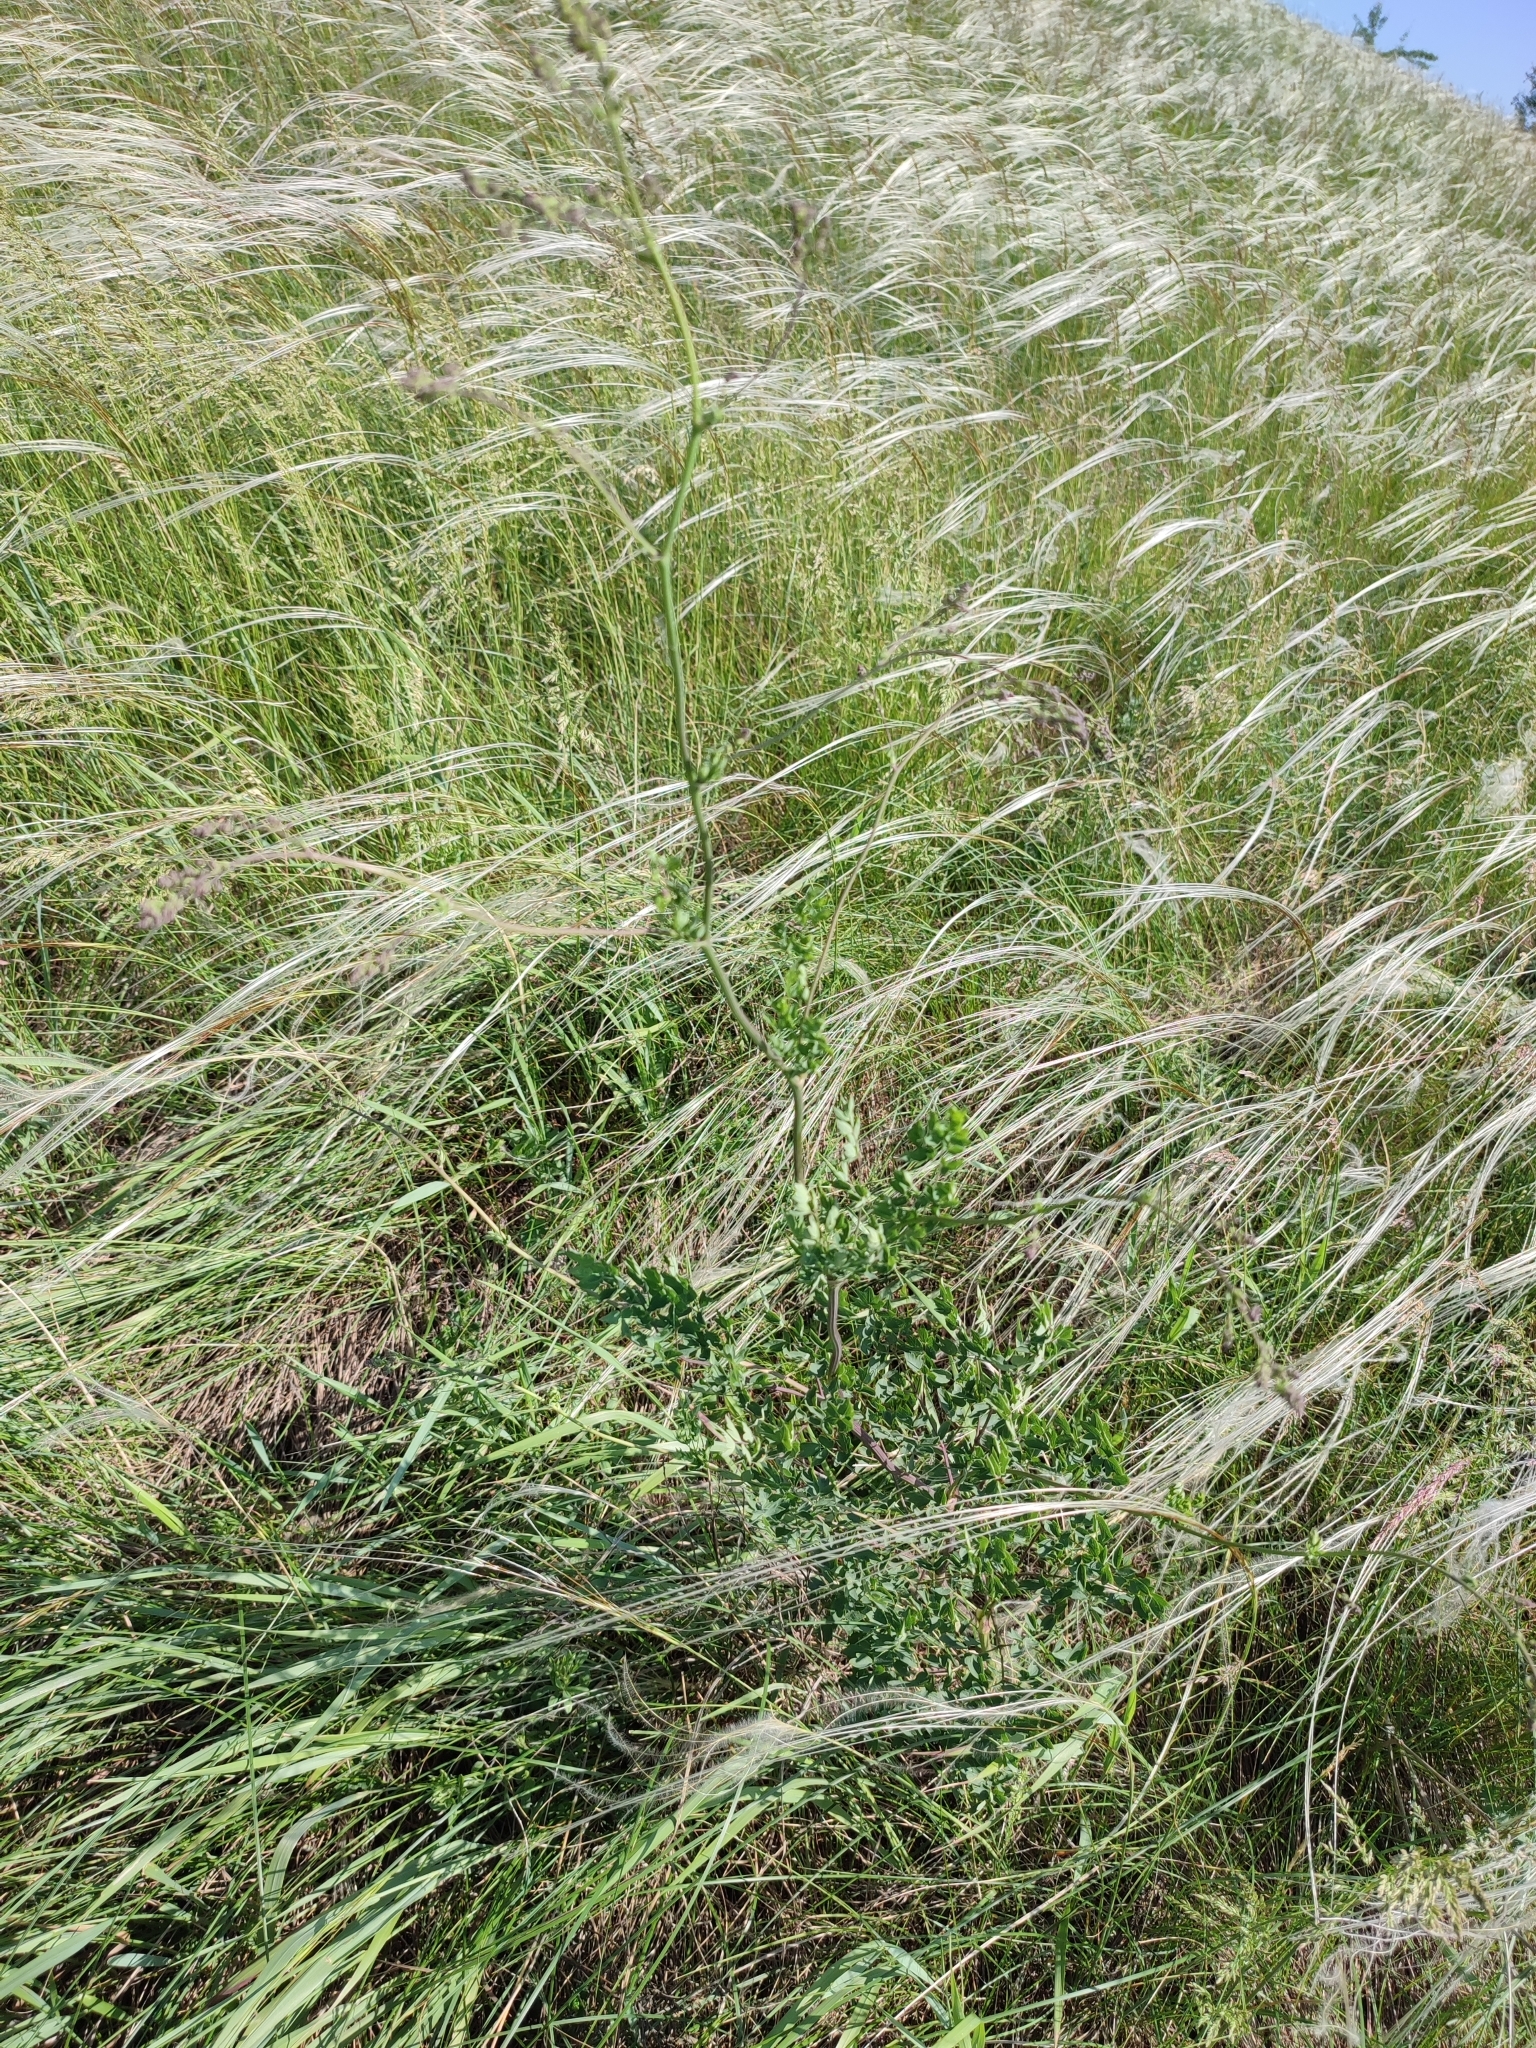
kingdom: Plantae
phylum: Tracheophyta
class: Magnoliopsida
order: Ranunculales
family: Ranunculaceae
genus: Thalictrum
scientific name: Thalictrum minus
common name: Lesser meadow-rue
